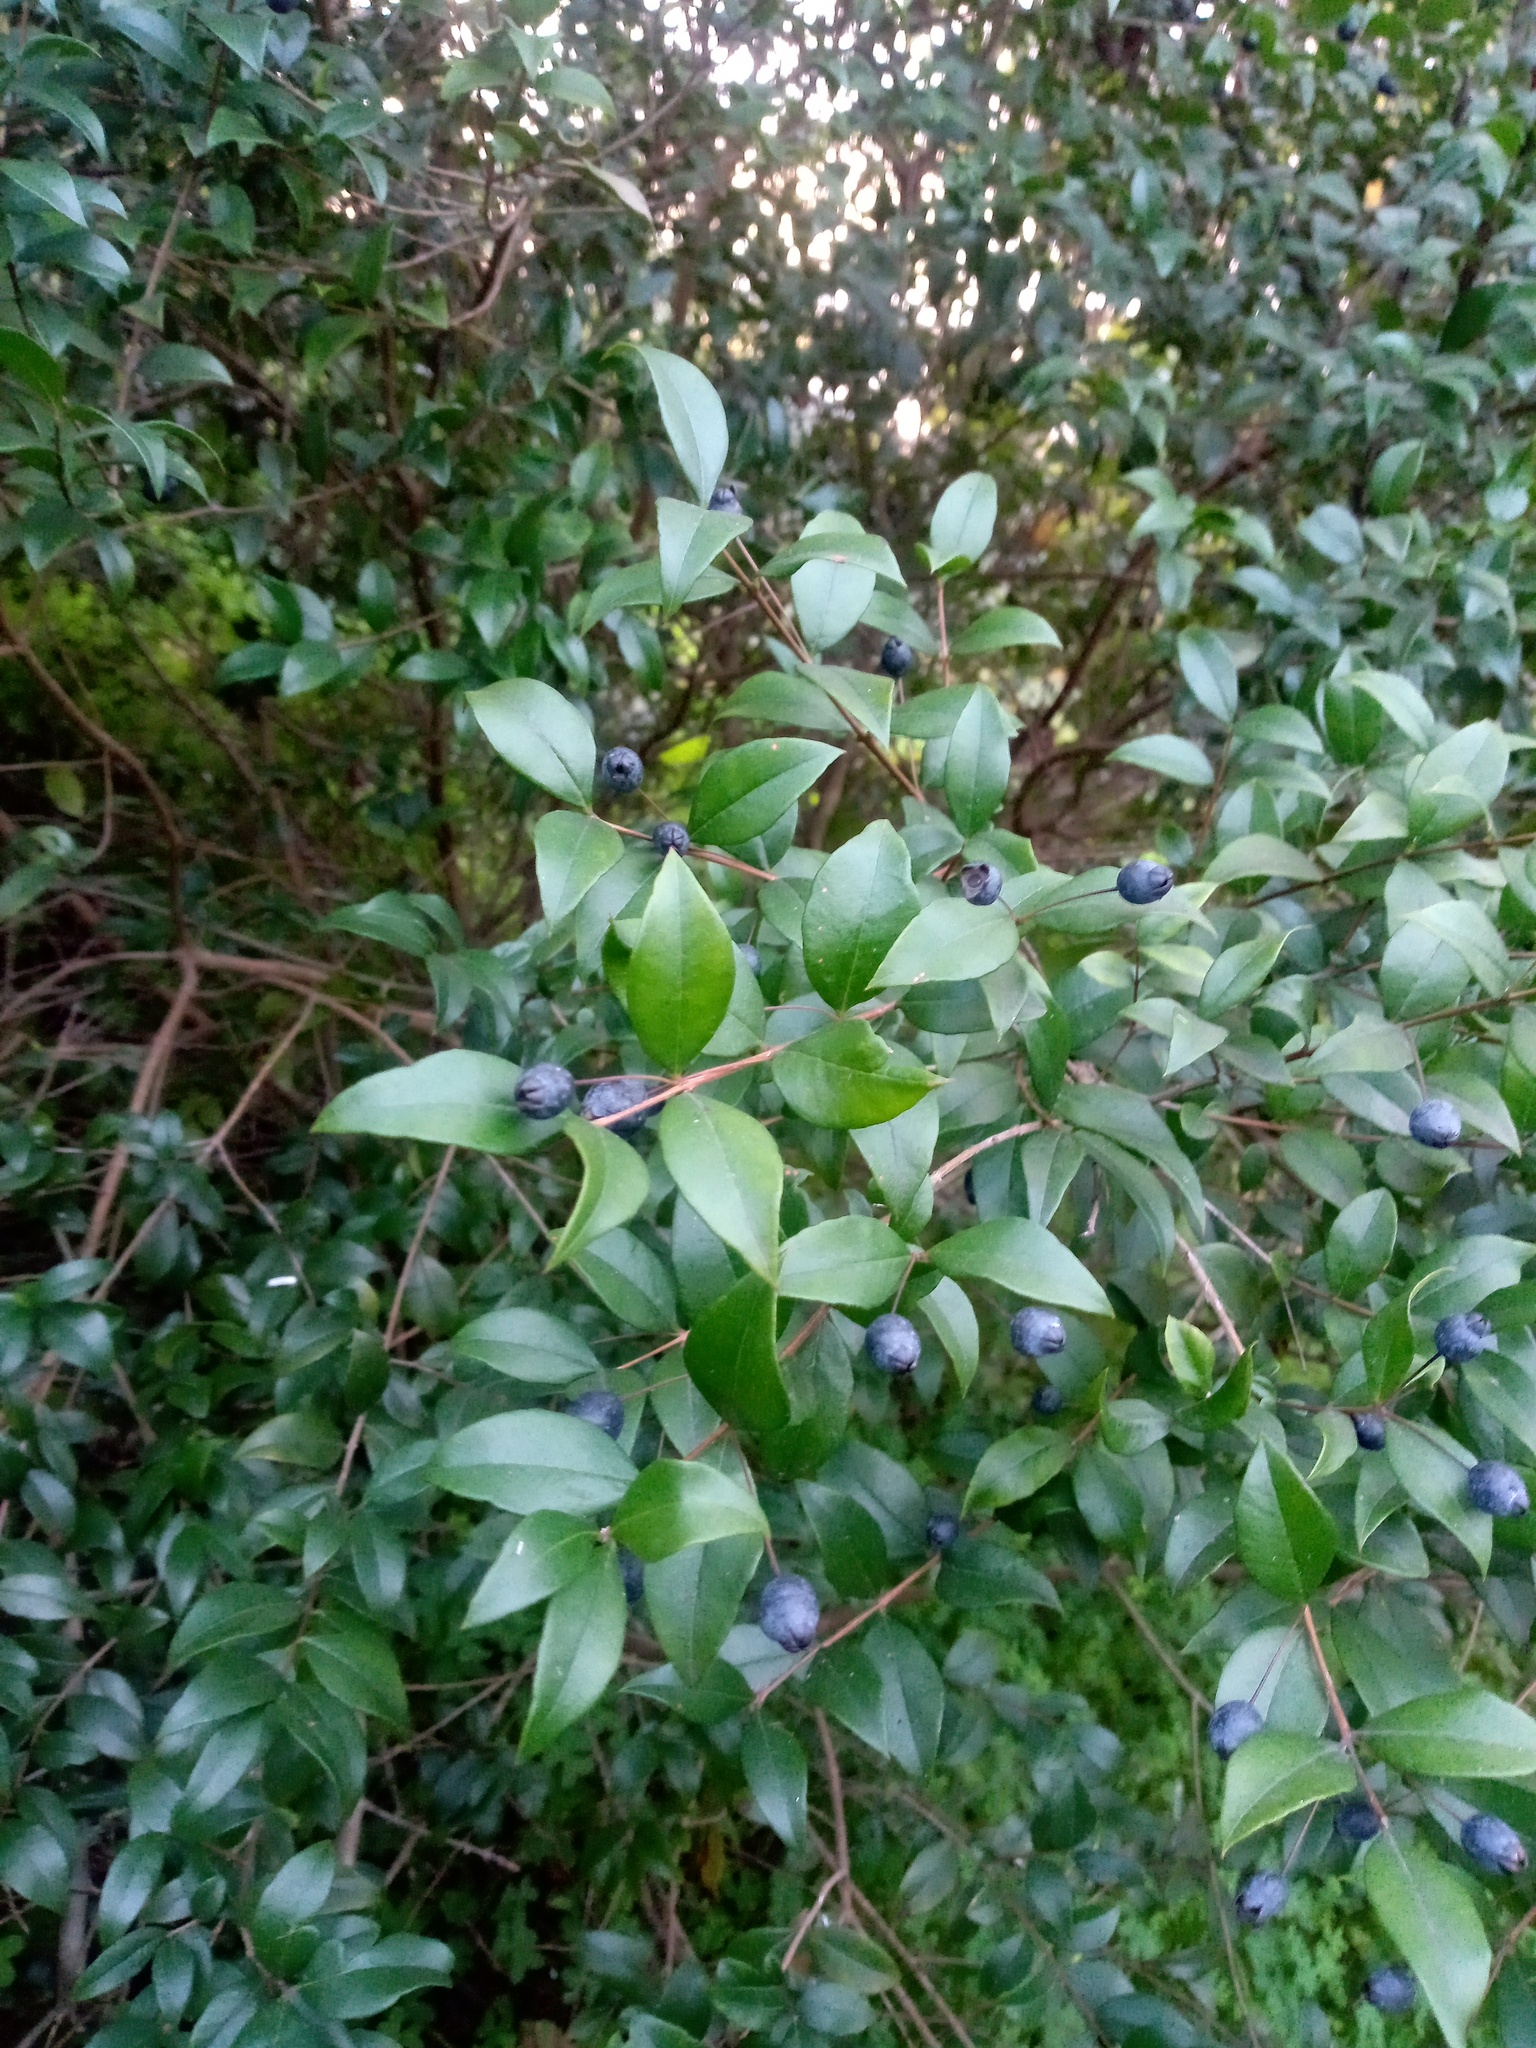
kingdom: Plantae
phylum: Tracheophyta
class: Magnoliopsida
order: Myrtales
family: Myrtaceae
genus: Myrtus
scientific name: Myrtus communis
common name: Myrtle
